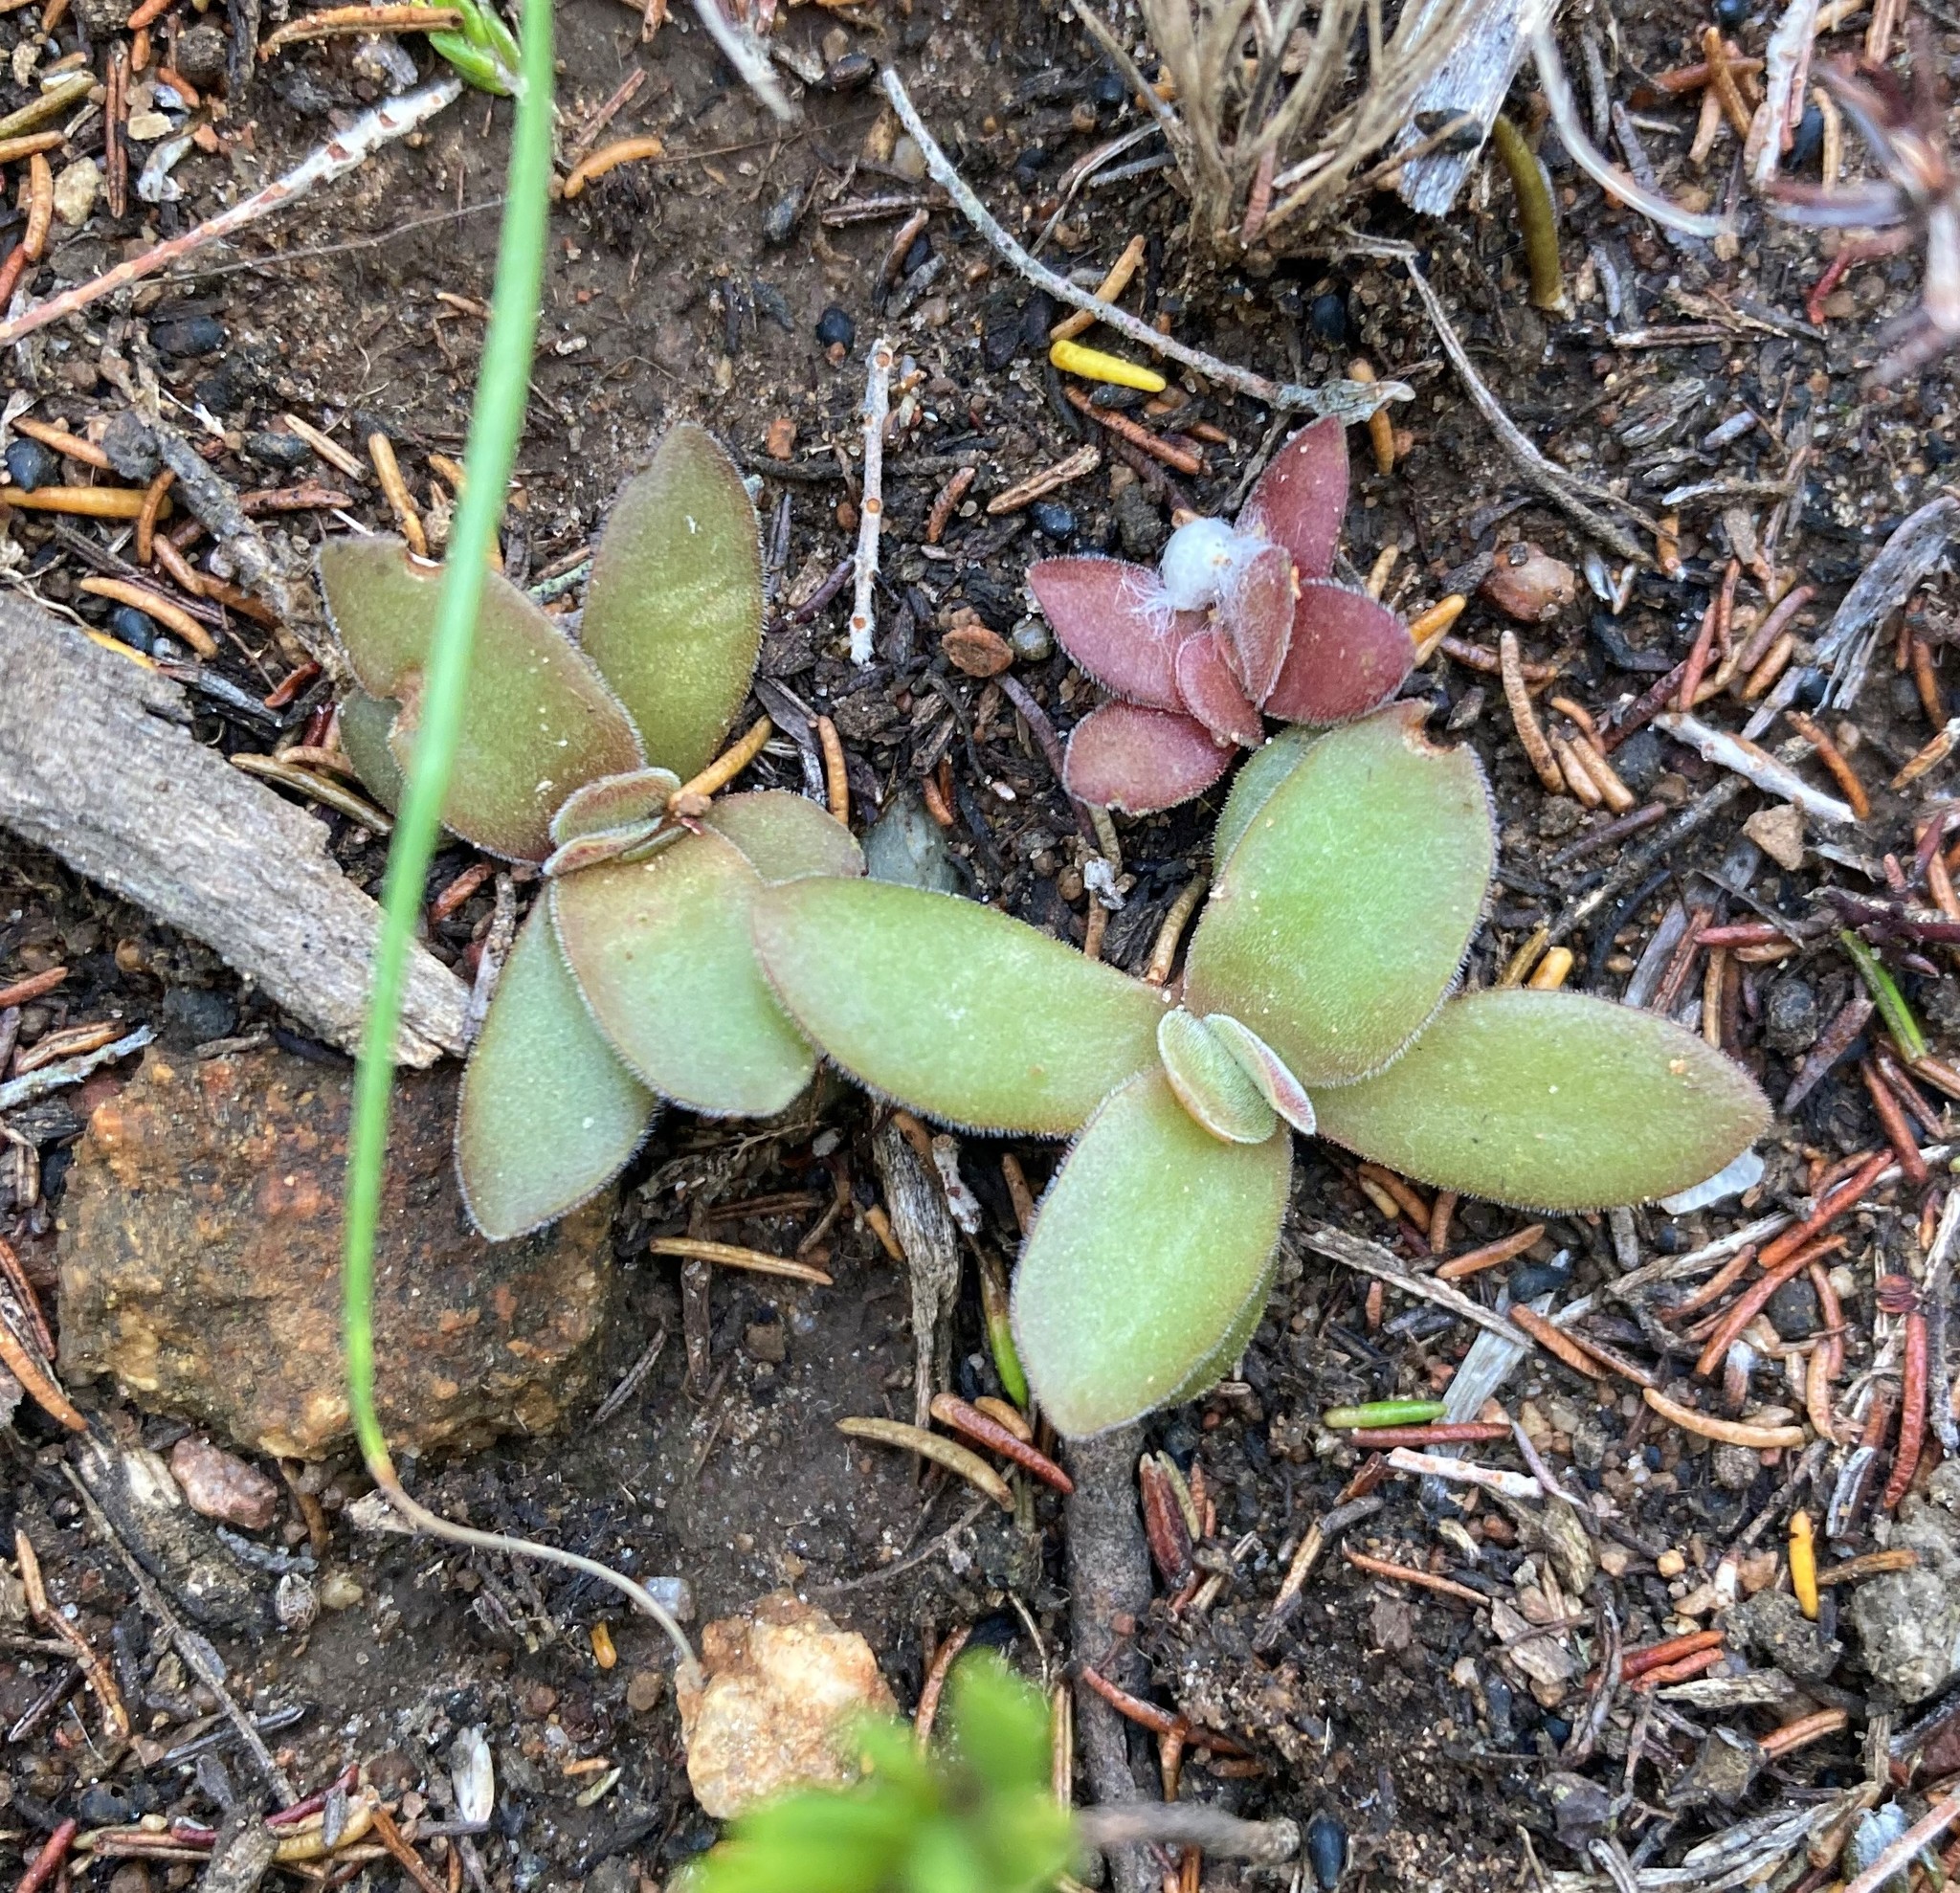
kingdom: Plantae
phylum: Tracheophyta
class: Magnoliopsida
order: Saxifragales
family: Crassulaceae
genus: Crassula
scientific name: Crassula nudicaulis
